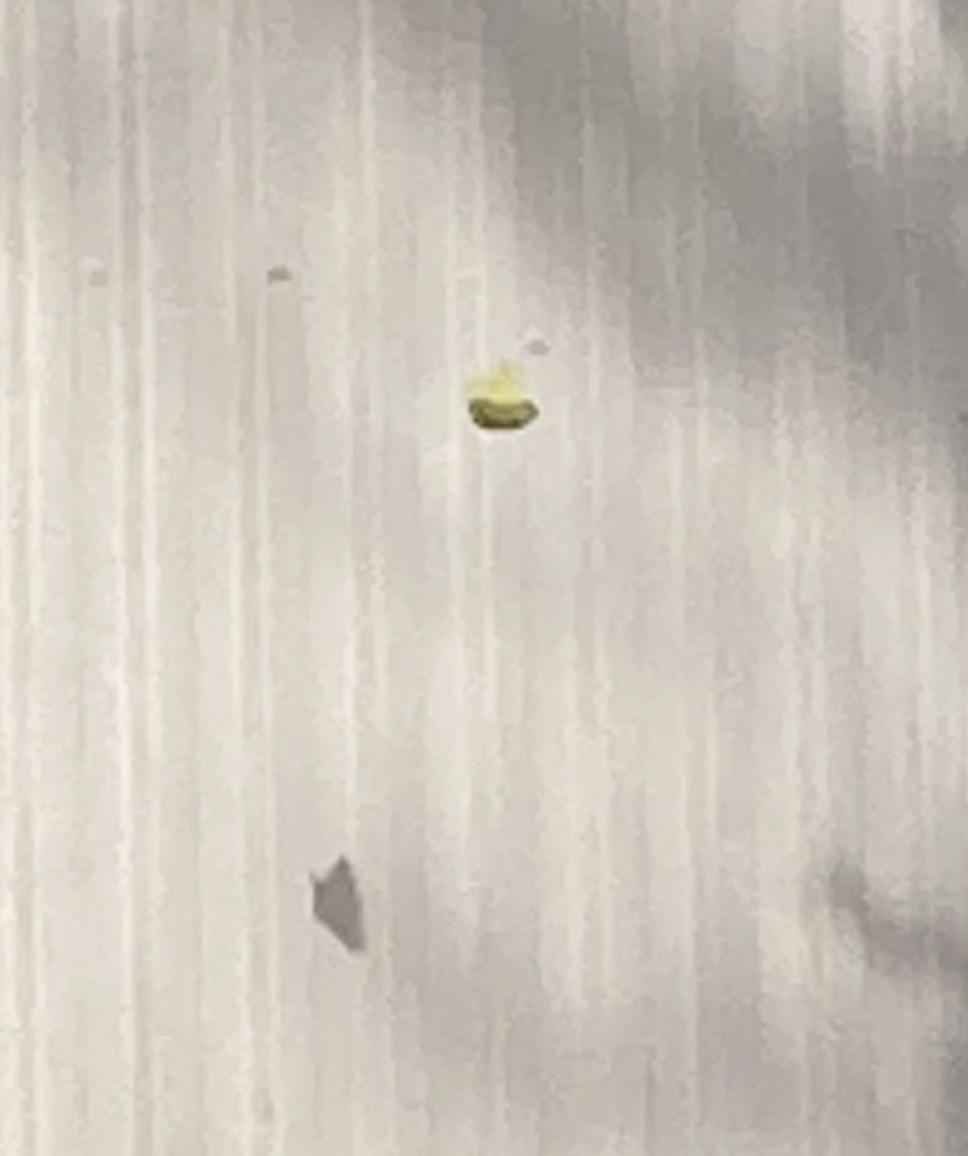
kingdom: Animalia
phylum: Arthropoda
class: Insecta
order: Lepidoptera
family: Pieridae
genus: Gonepteryx
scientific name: Gonepteryx rhamni
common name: Brimstone
